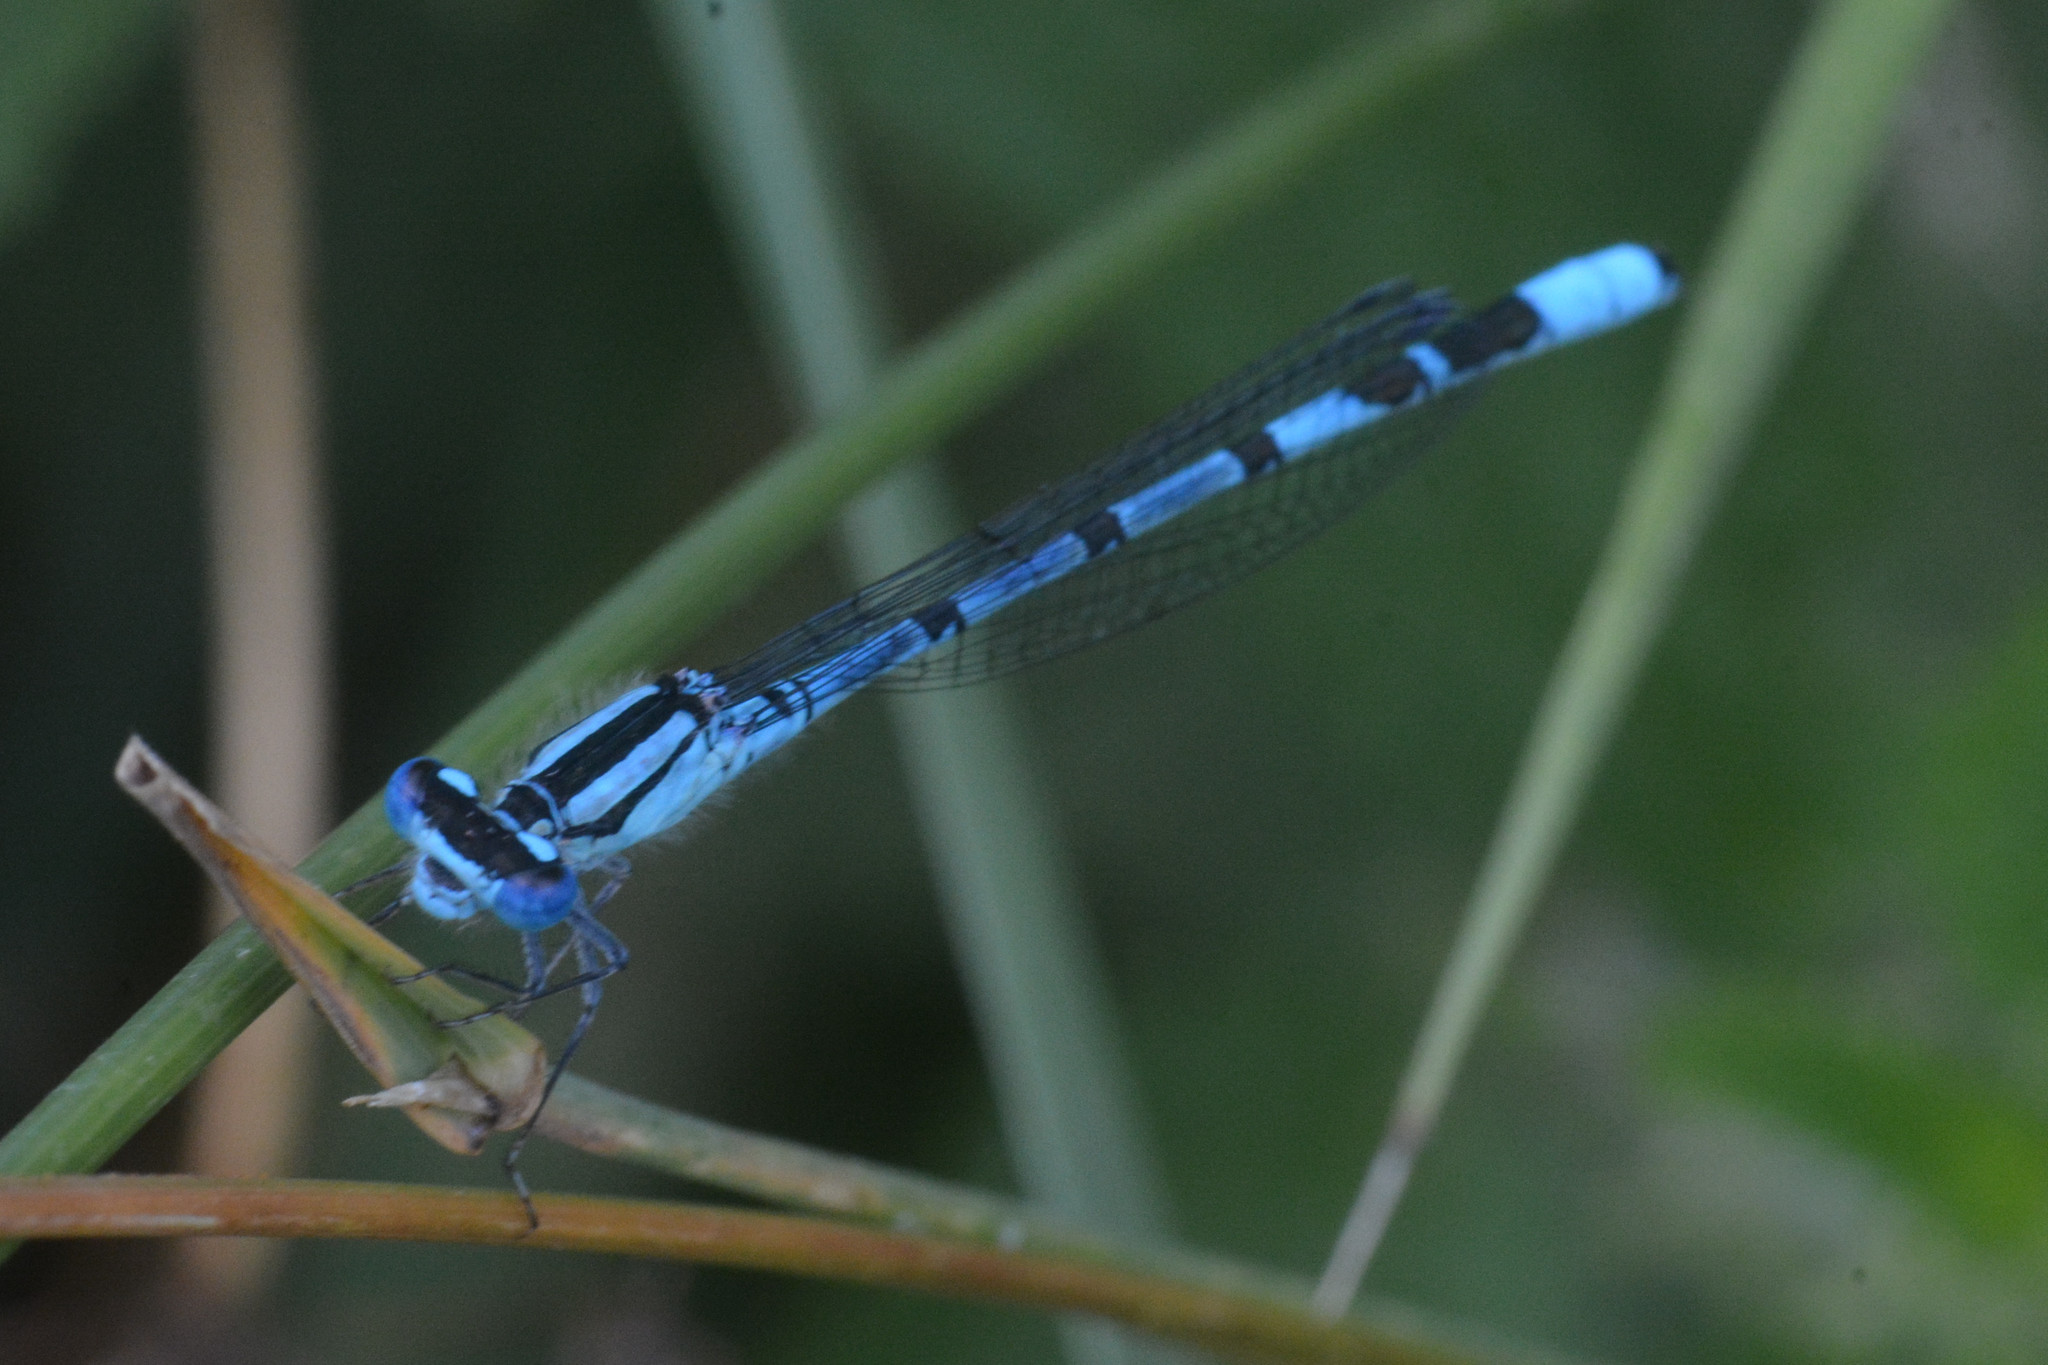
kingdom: Animalia
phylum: Arthropoda
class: Insecta
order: Odonata
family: Coenagrionidae
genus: Enallagma
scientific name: Enallagma cyathigerum
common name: Common blue damselfly
